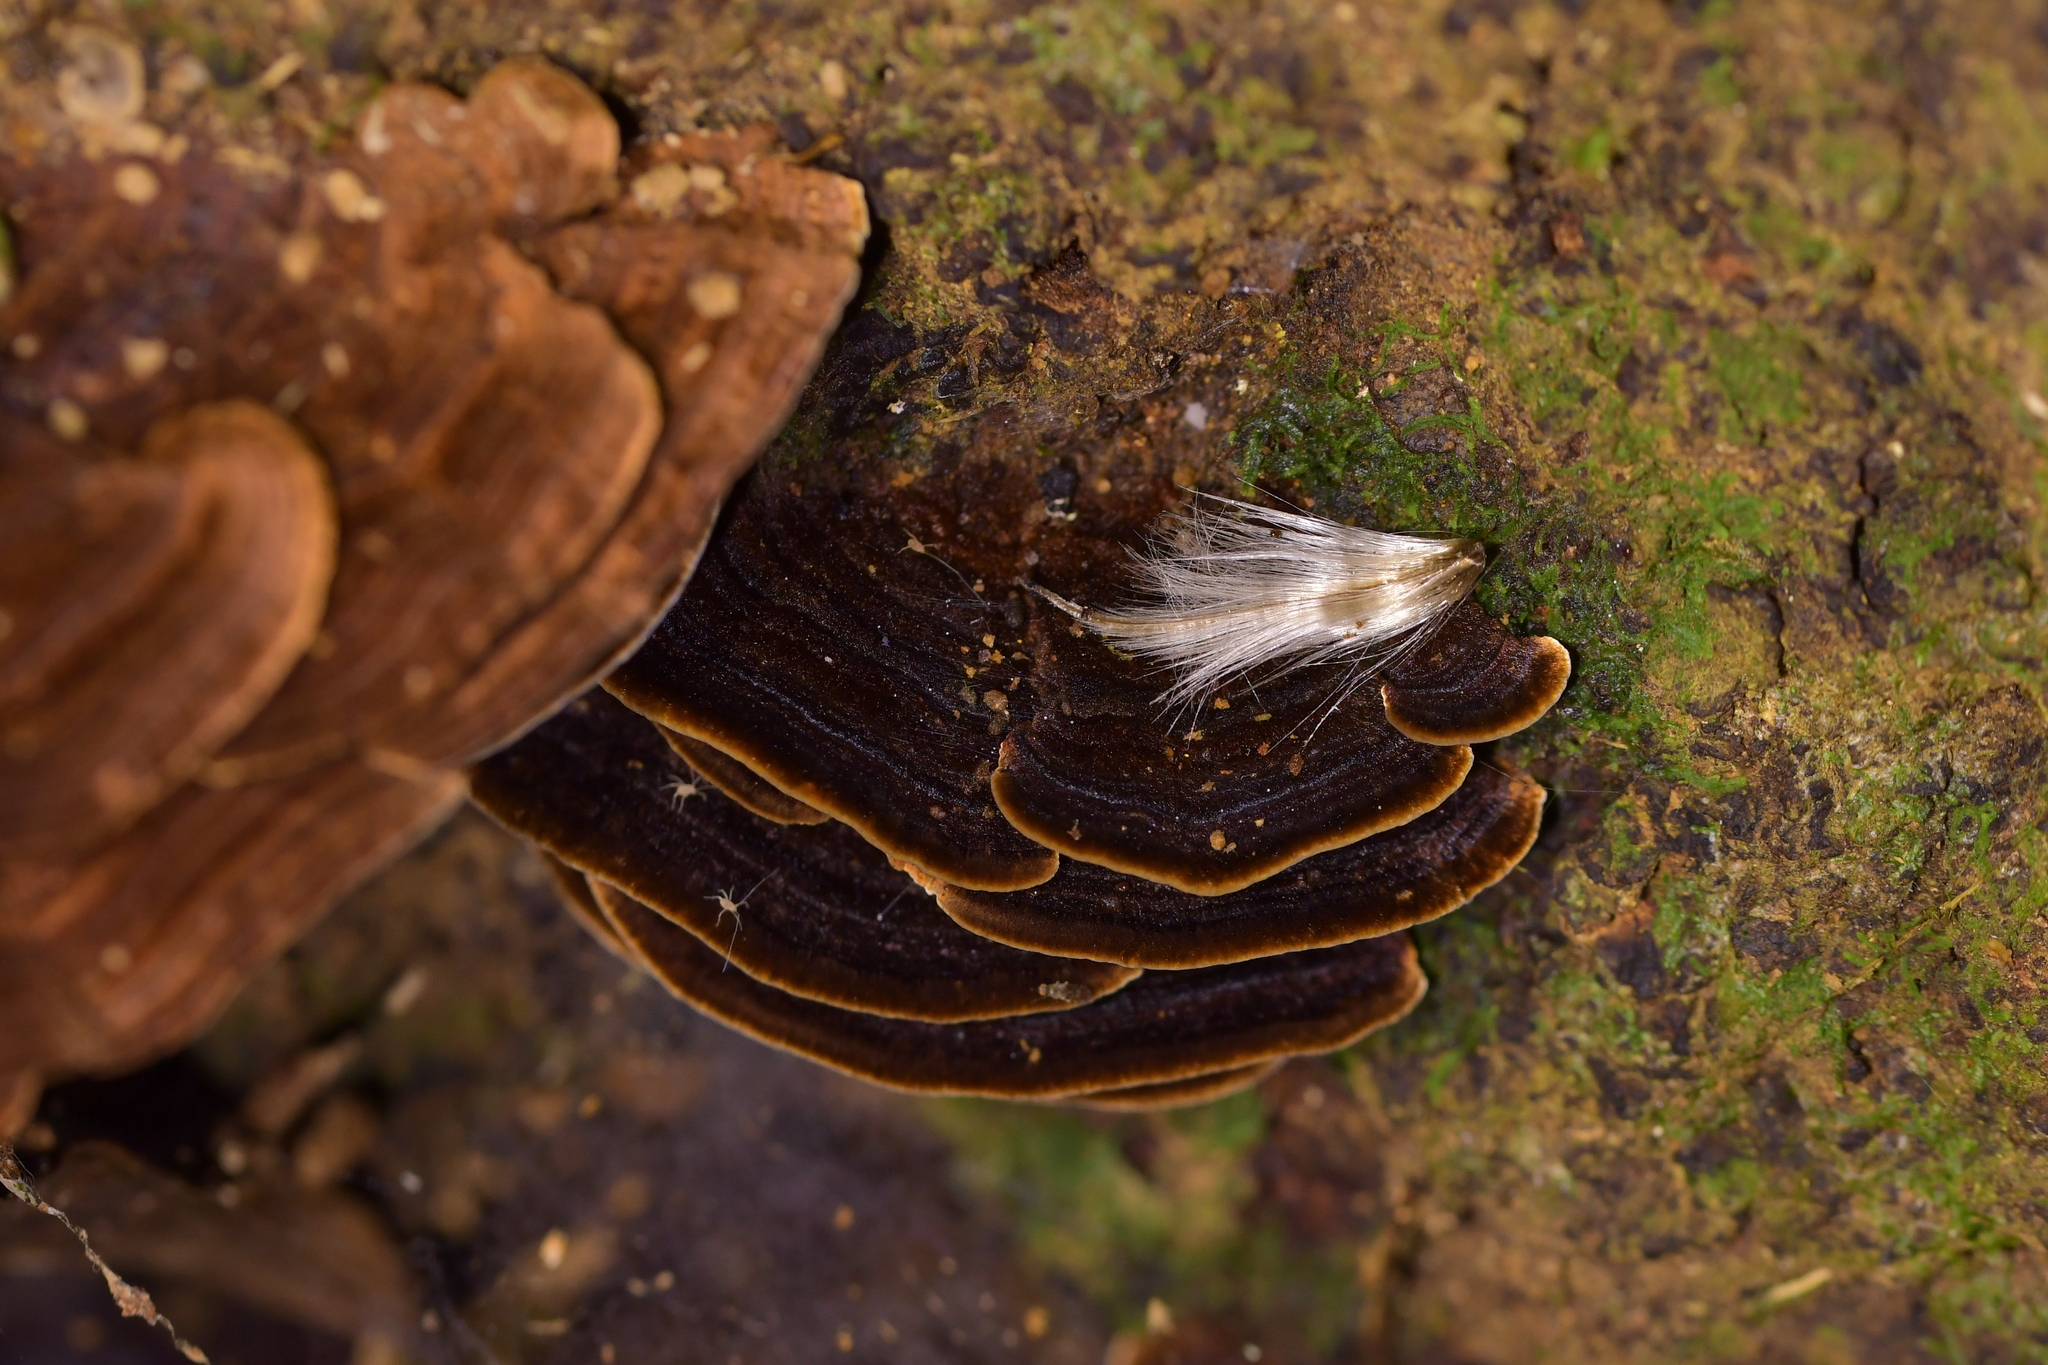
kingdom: Fungi
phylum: Basidiomycota
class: Agaricomycetes
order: Hymenochaetales
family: Hymenochaetaceae
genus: Hymenochaete
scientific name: Hymenochaete microcycla
